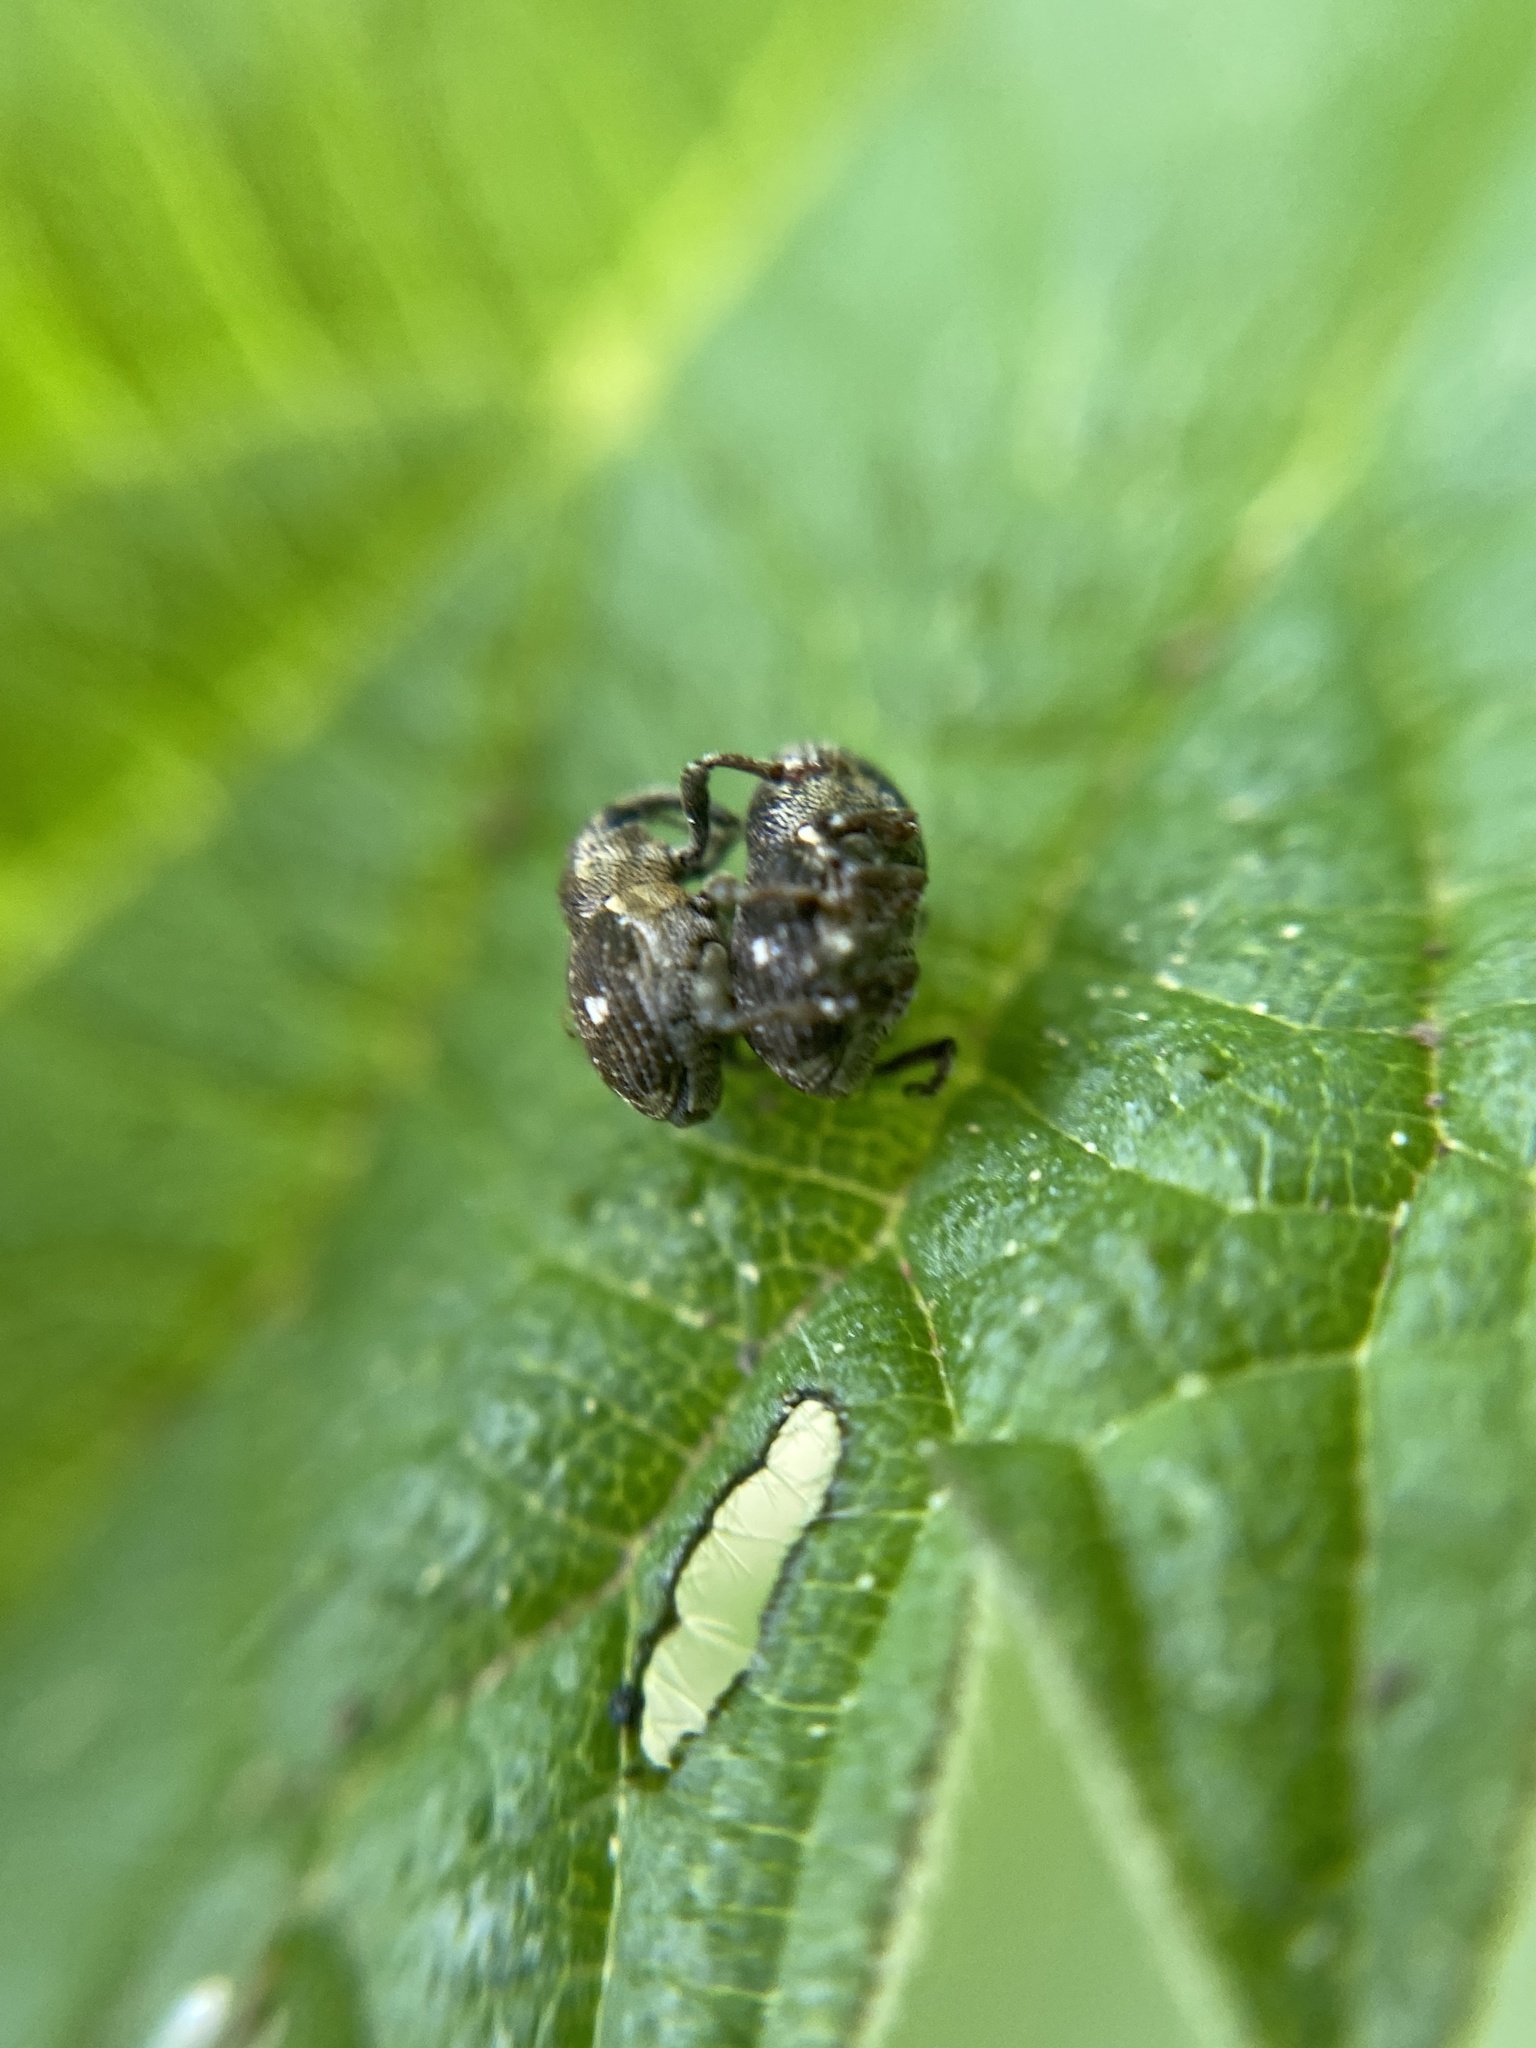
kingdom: Animalia
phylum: Arthropoda
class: Insecta
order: Coleoptera
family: Curculionidae
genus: Nedyus
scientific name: Nedyus quadrimaculatus
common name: Small nettle weevil
